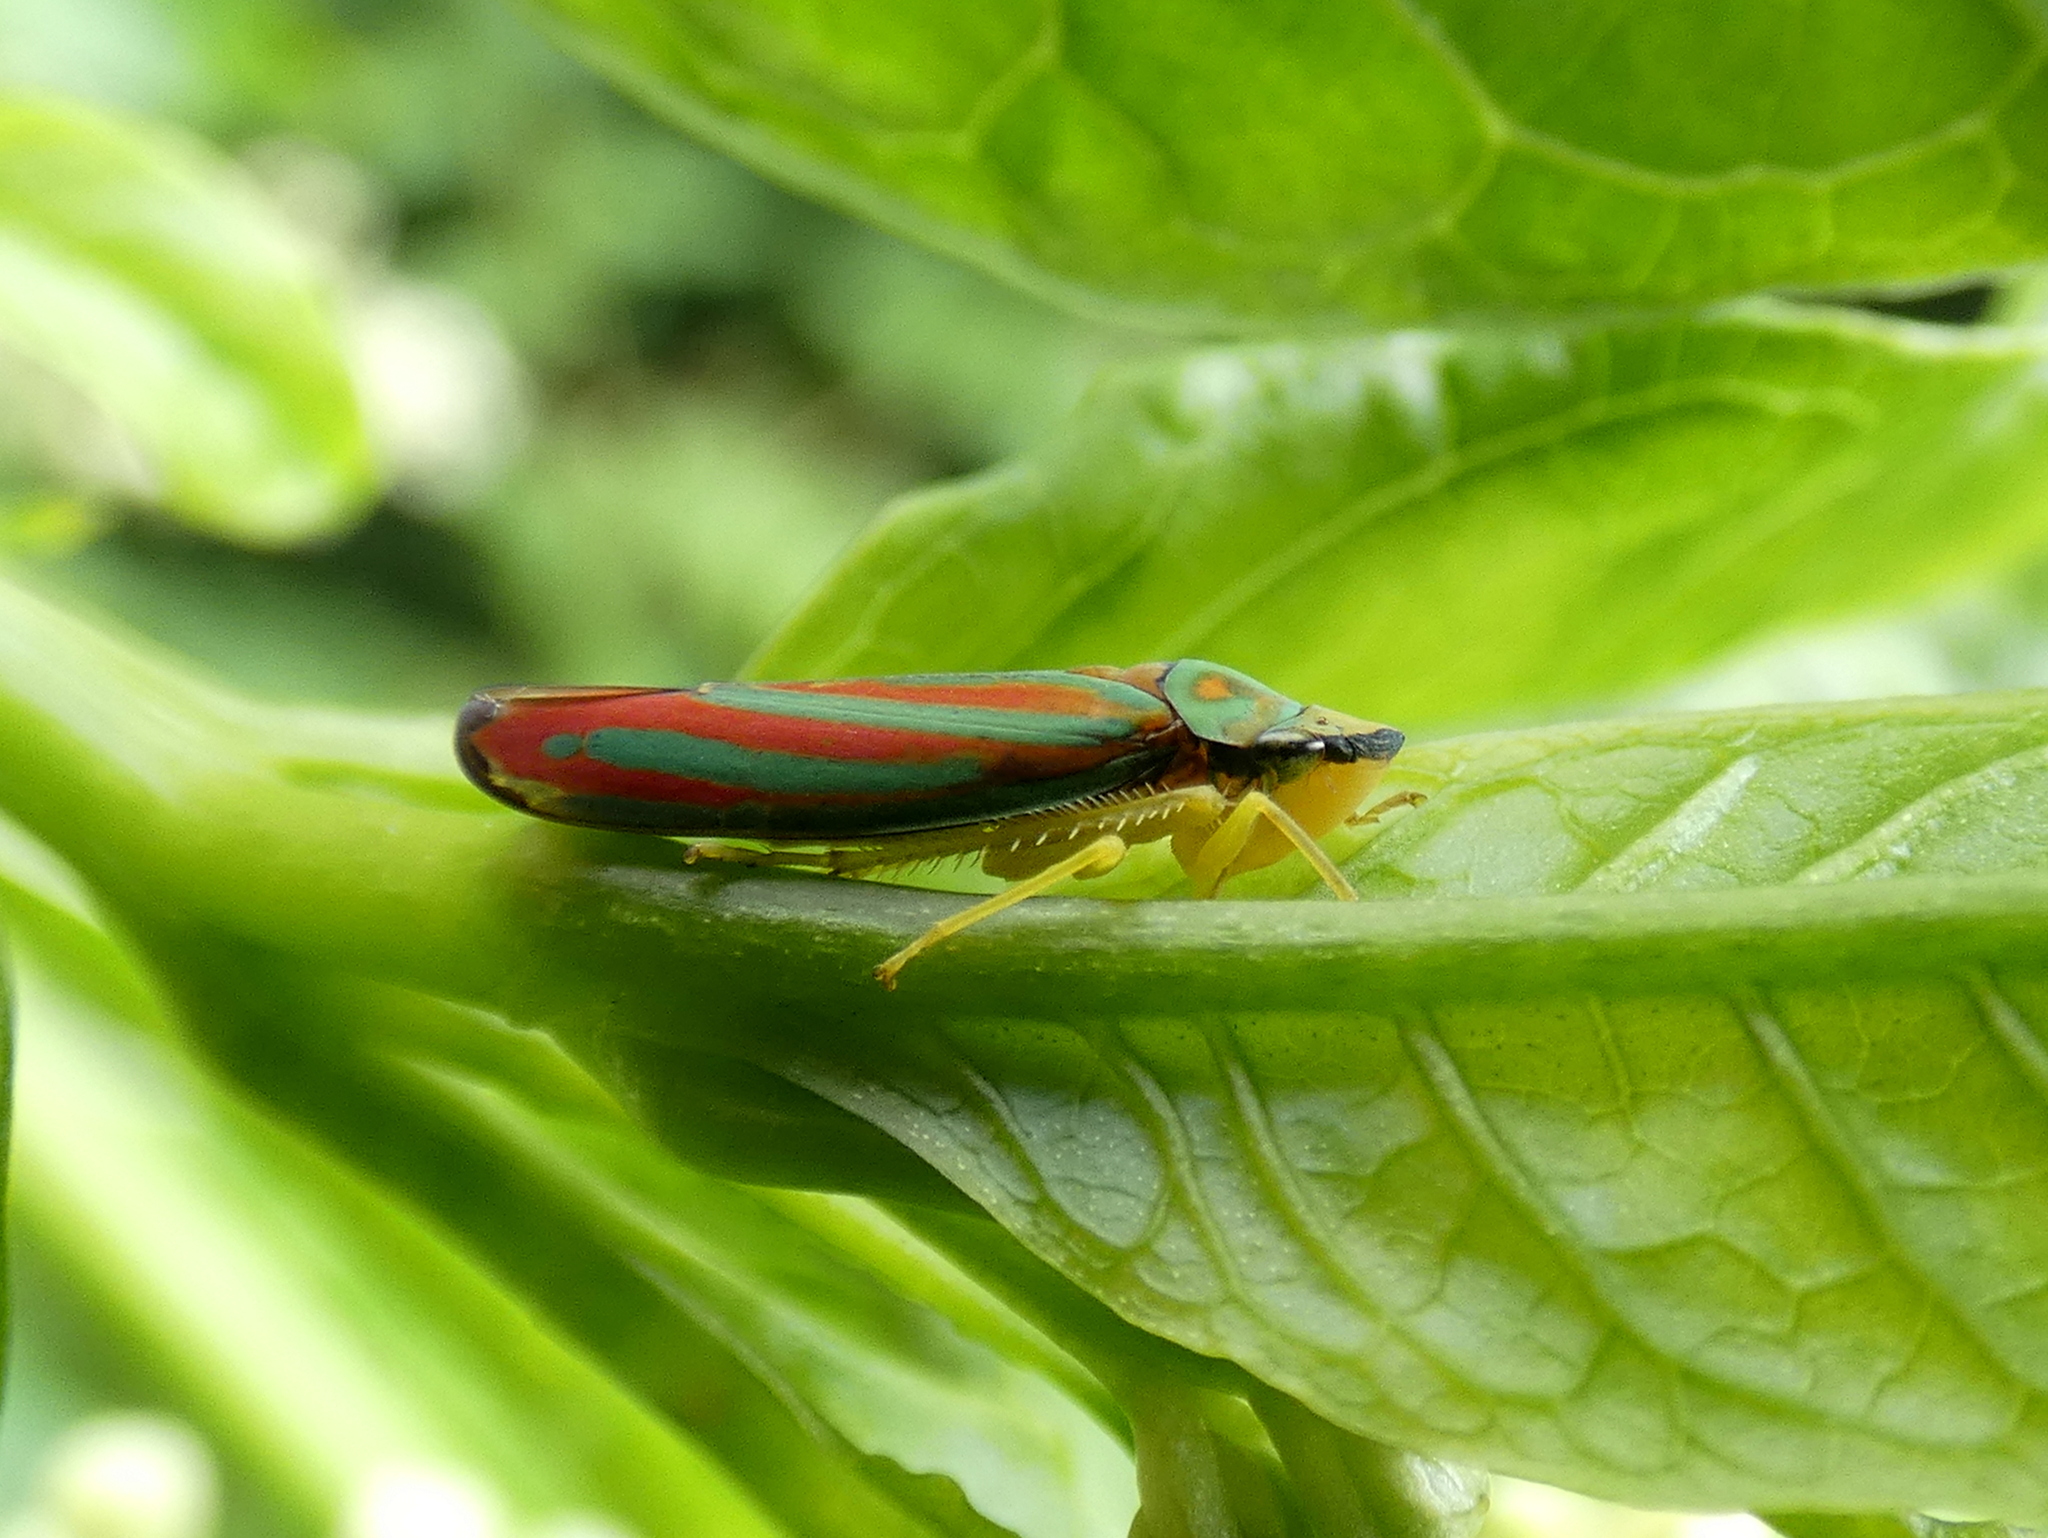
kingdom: Animalia
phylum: Arthropoda
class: Insecta
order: Hemiptera
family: Cicadellidae
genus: Graphocephala
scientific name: Graphocephala coccinea
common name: Candy-striped leafhopper
